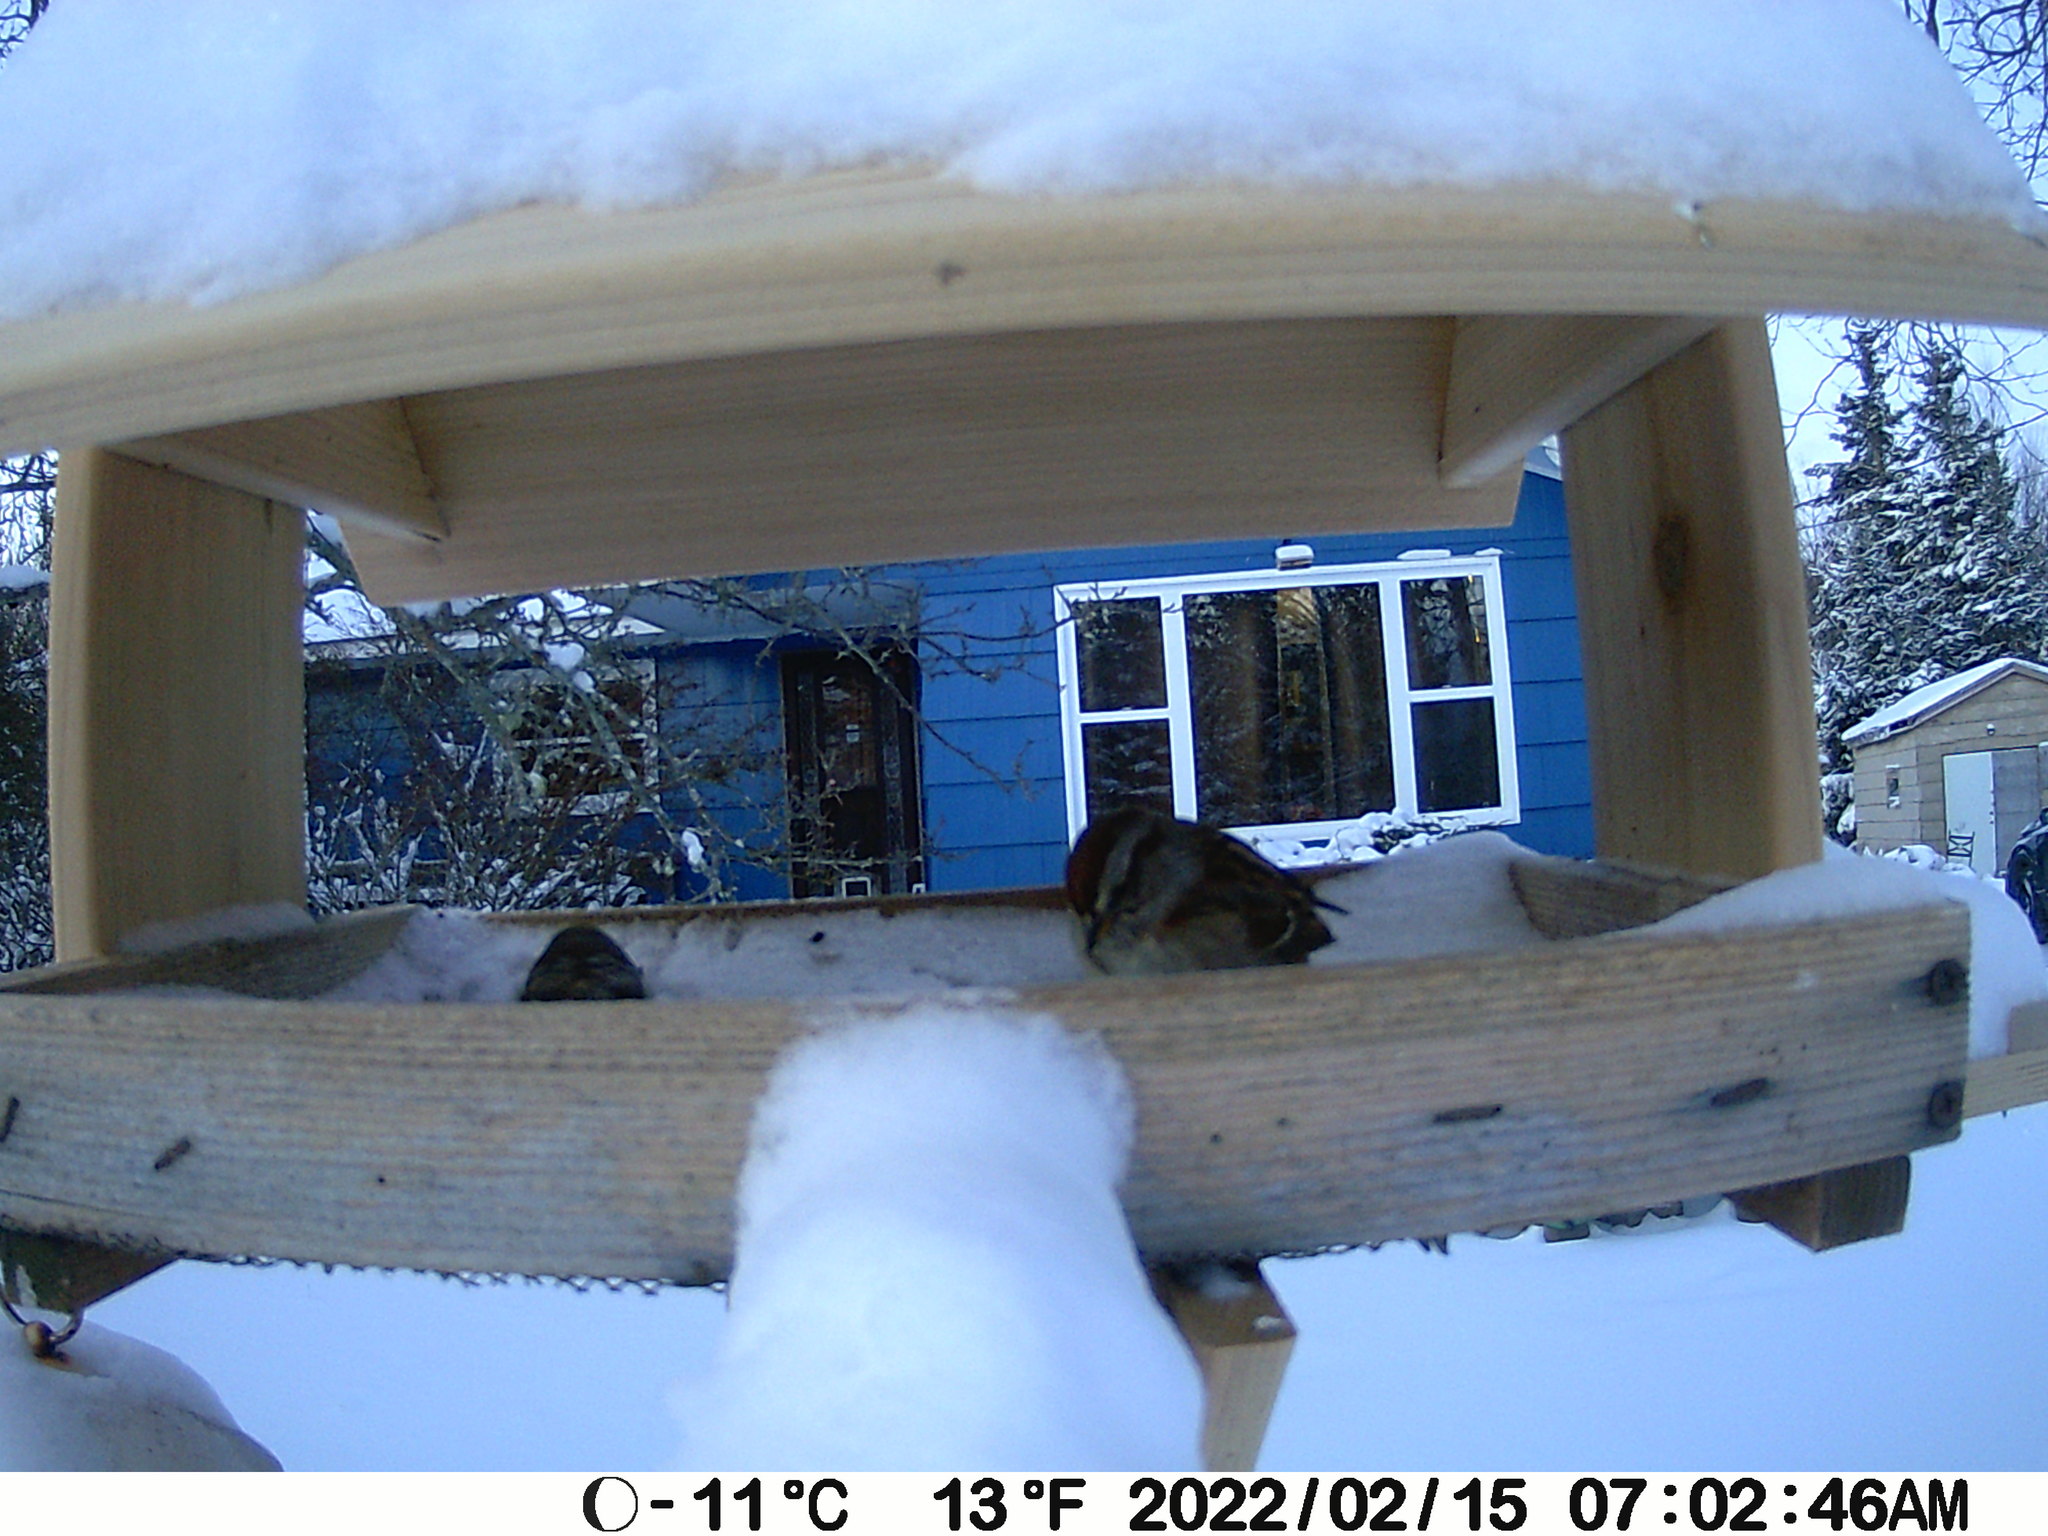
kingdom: Animalia
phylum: Chordata
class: Aves
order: Passeriformes
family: Passerellidae
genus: Spizelloides
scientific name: Spizelloides arborea
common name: American tree sparrow
